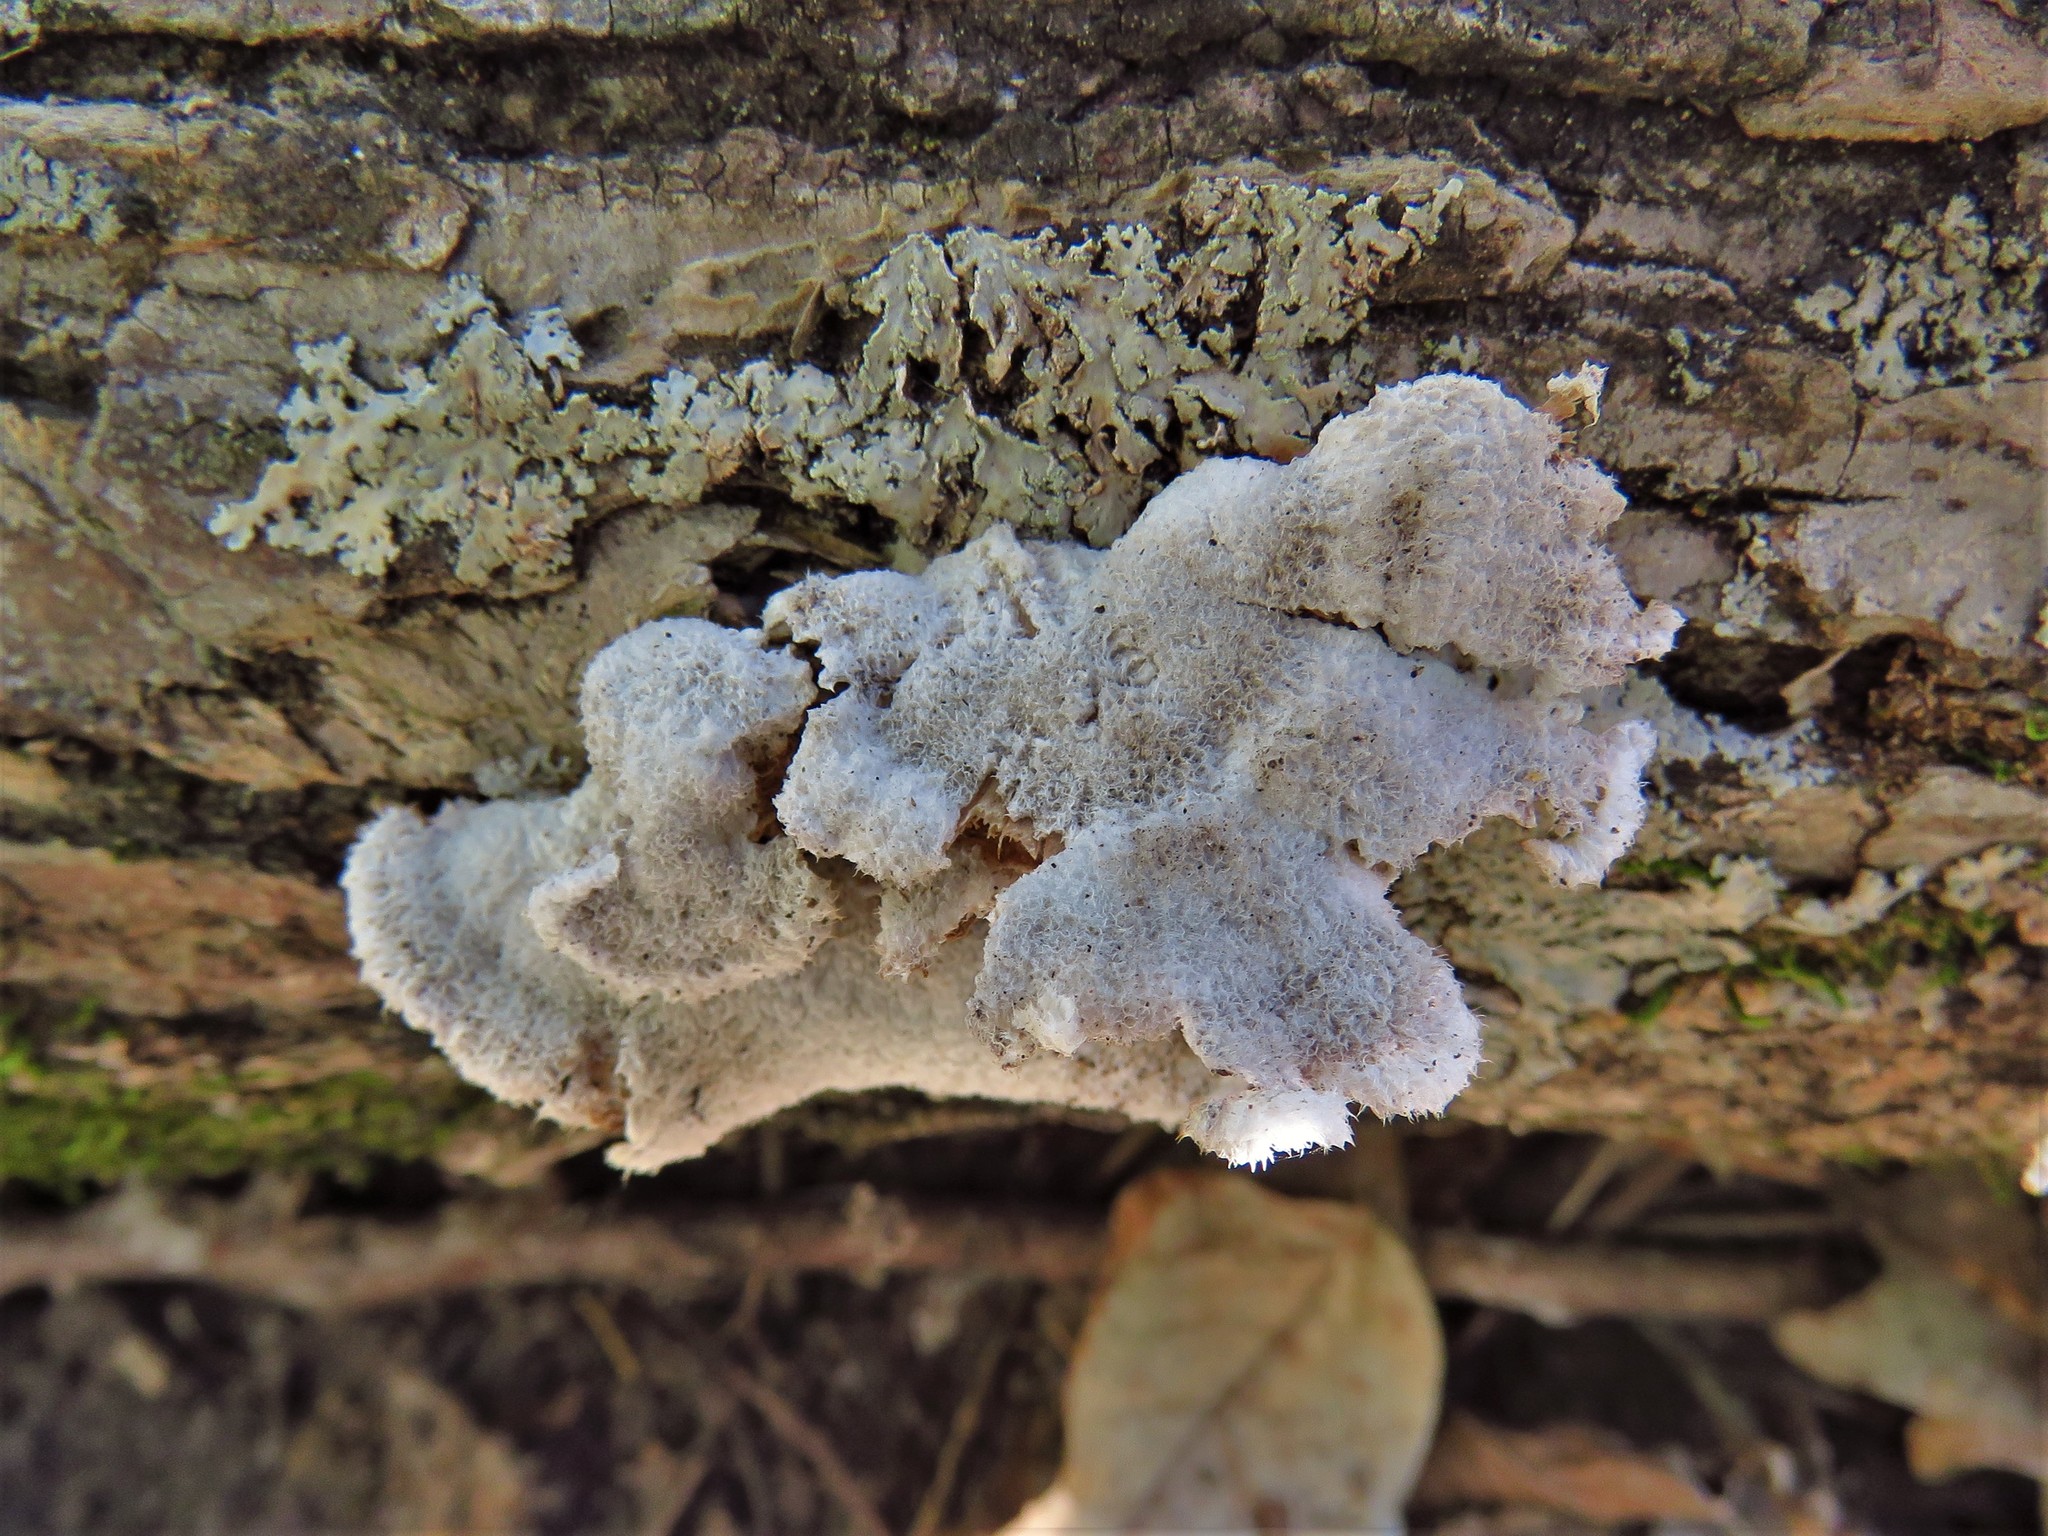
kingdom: Fungi
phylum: Basidiomycota
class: Agaricomycetes
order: Agaricales
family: Schizophyllaceae
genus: Schizophyllum
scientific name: Schizophyllum commune
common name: Common porecrust
